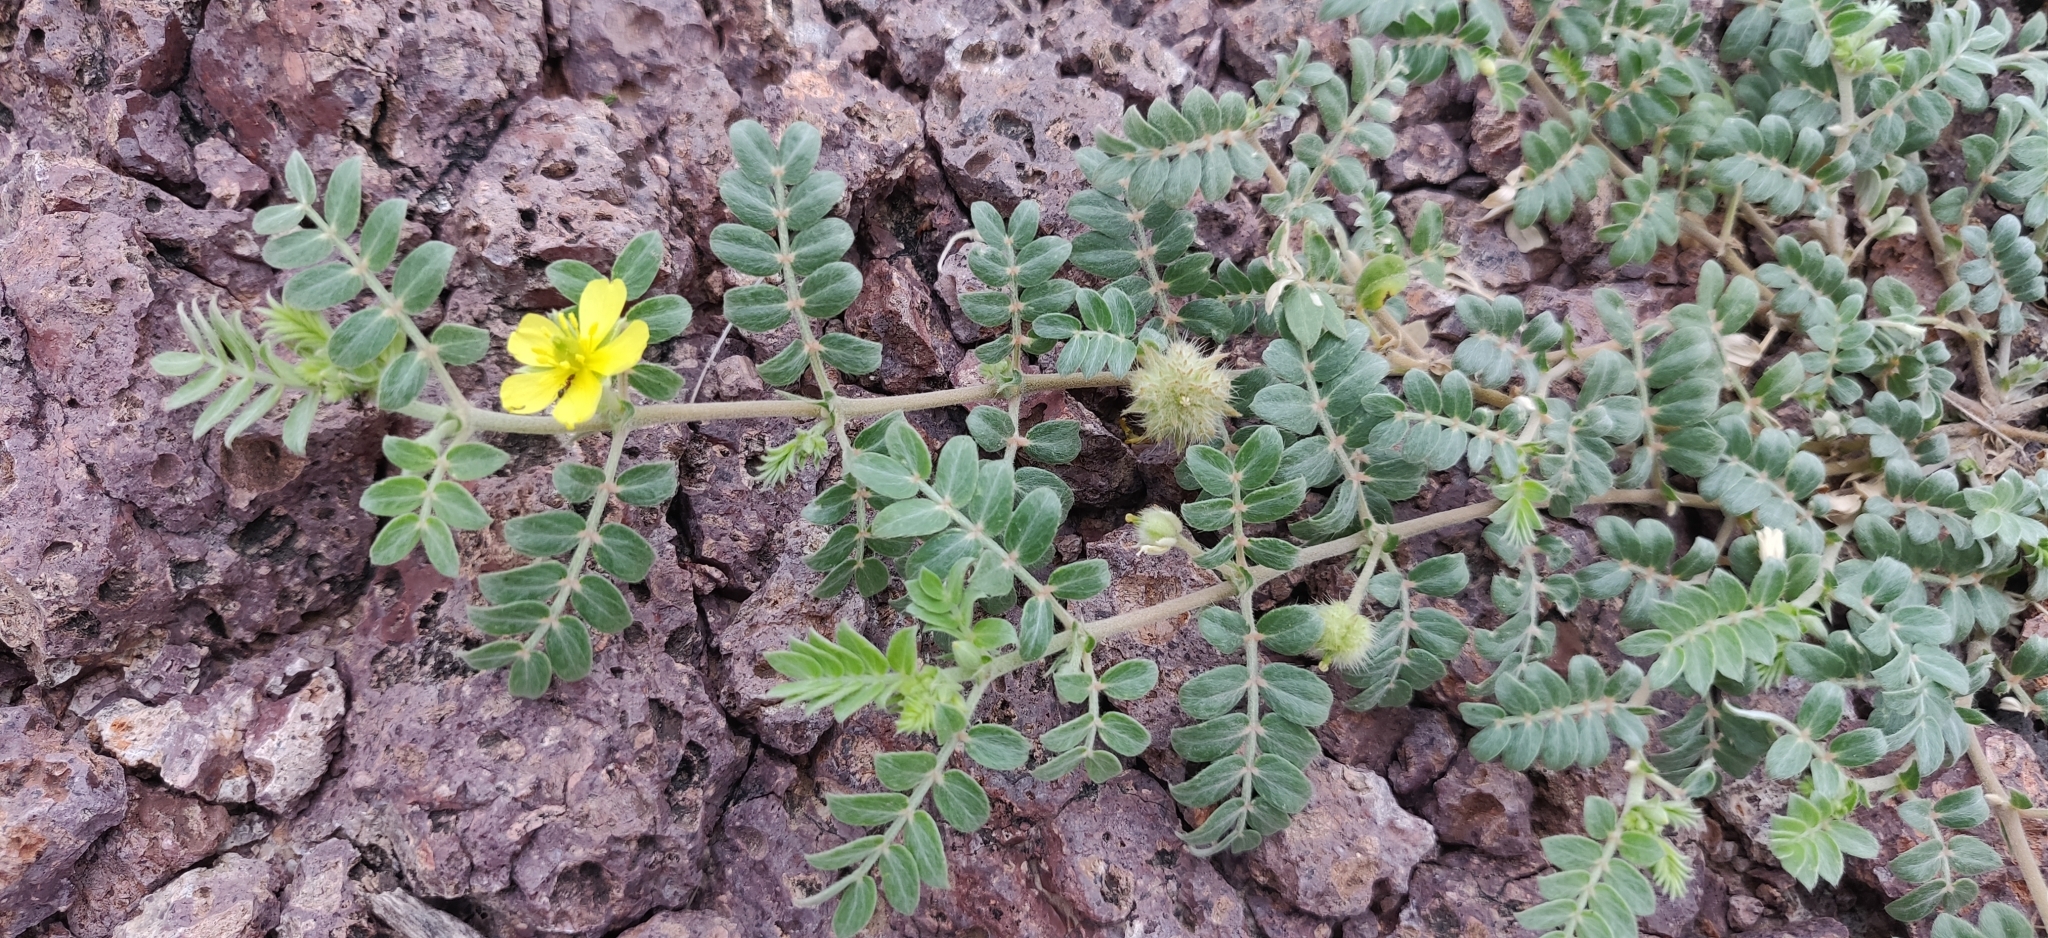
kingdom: Plantae
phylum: Tracheophyta
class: Magnoliopsida
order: Zygophyllales
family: Zygophyllaceae
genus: Tribulus
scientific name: Tribulus terrestris
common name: Puncturevine
